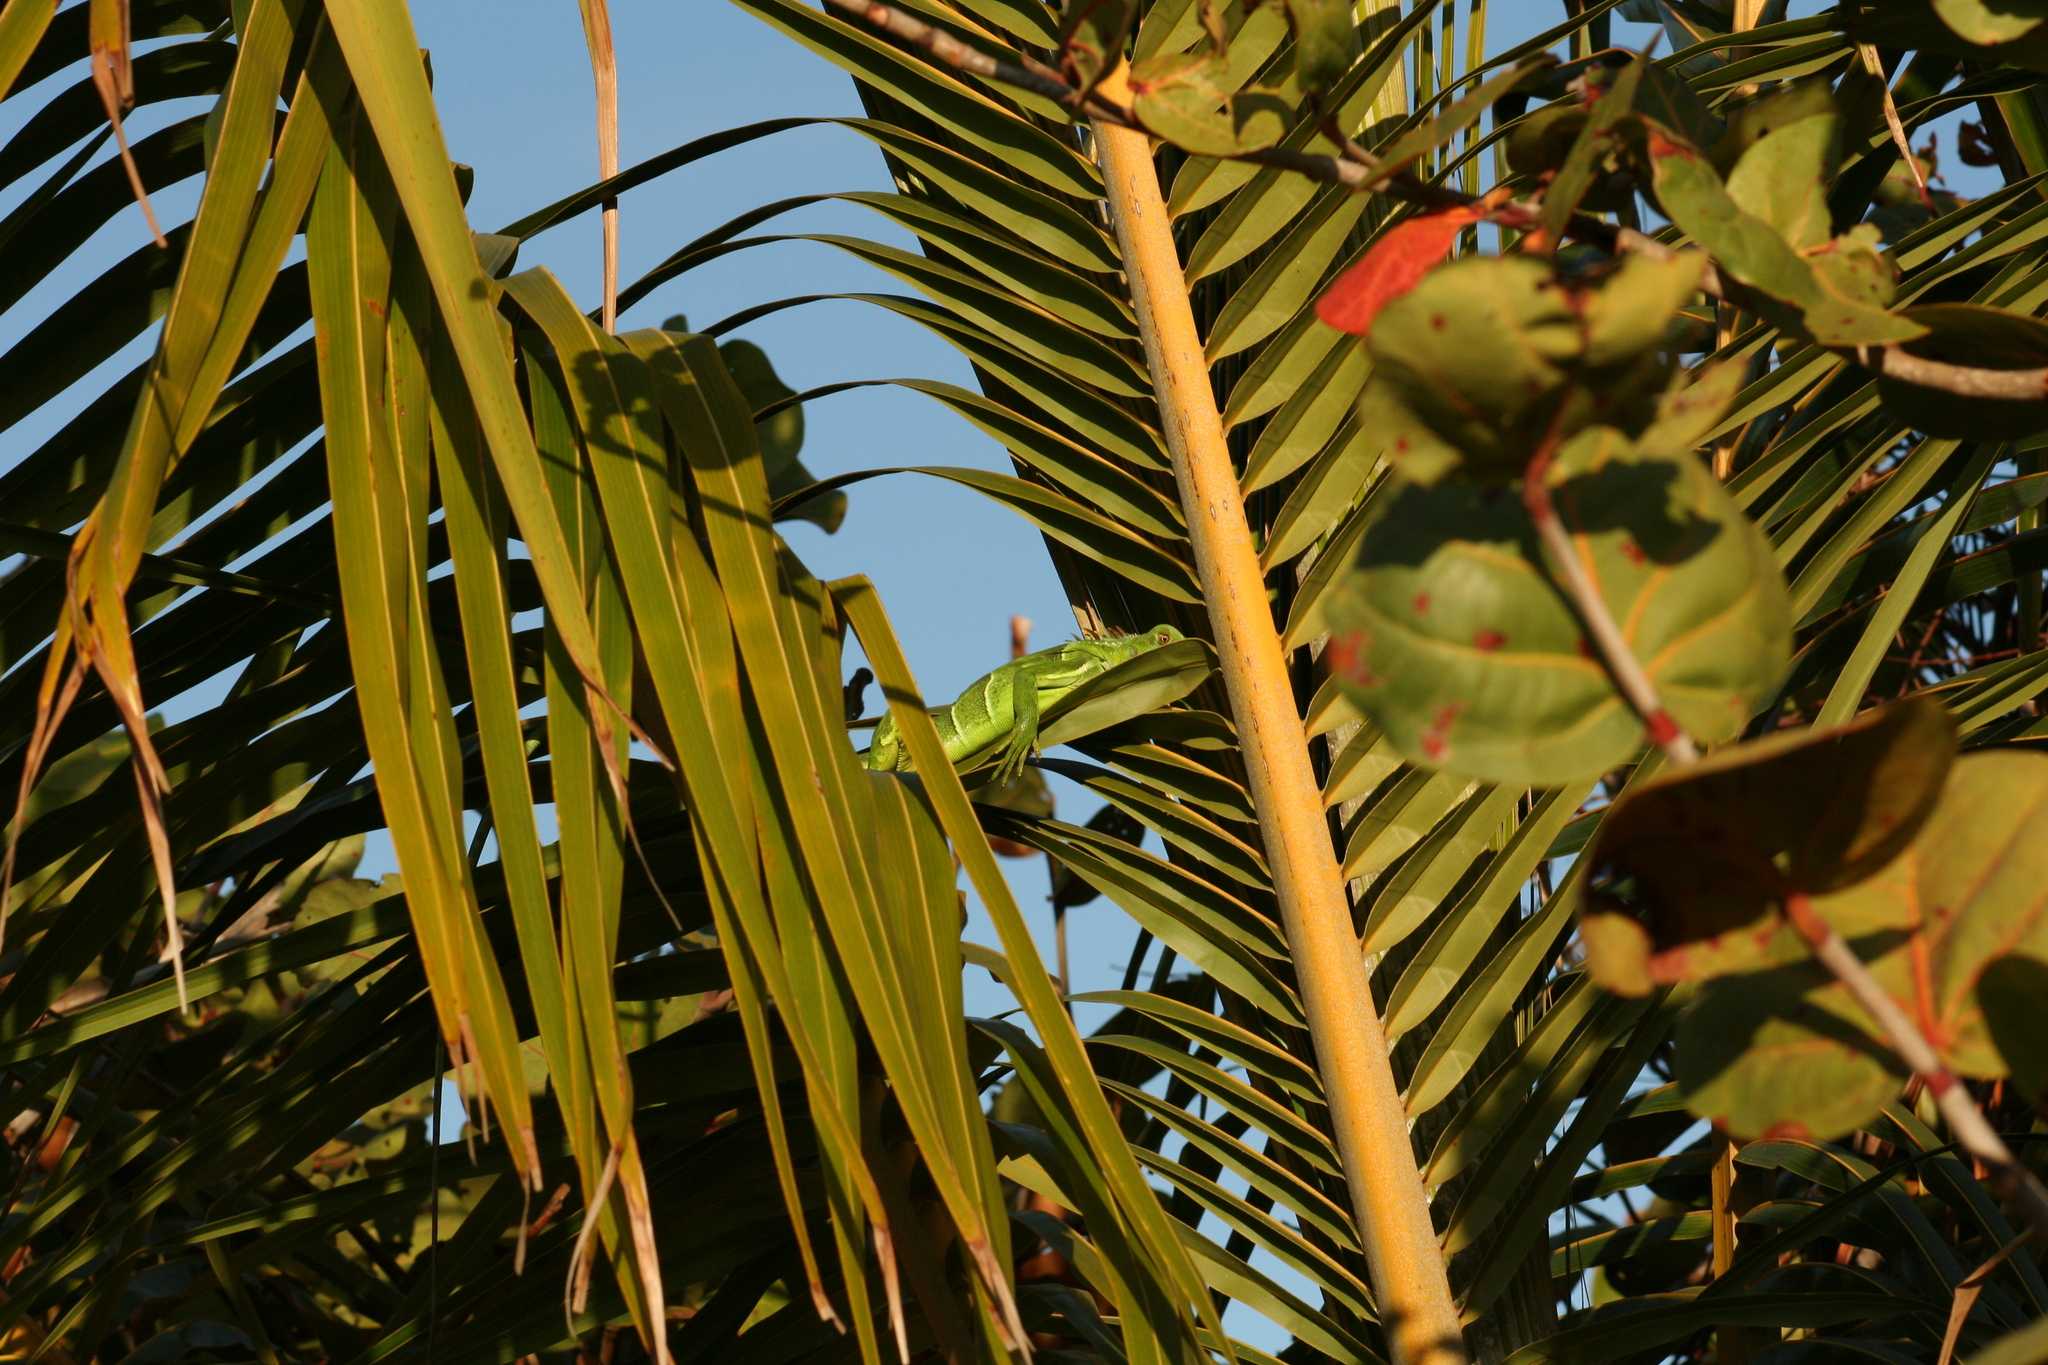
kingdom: Animalia
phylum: Chordata
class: Squamata
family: Iguanidae
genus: Iguana
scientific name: Iguana iguana
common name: Green iguana
